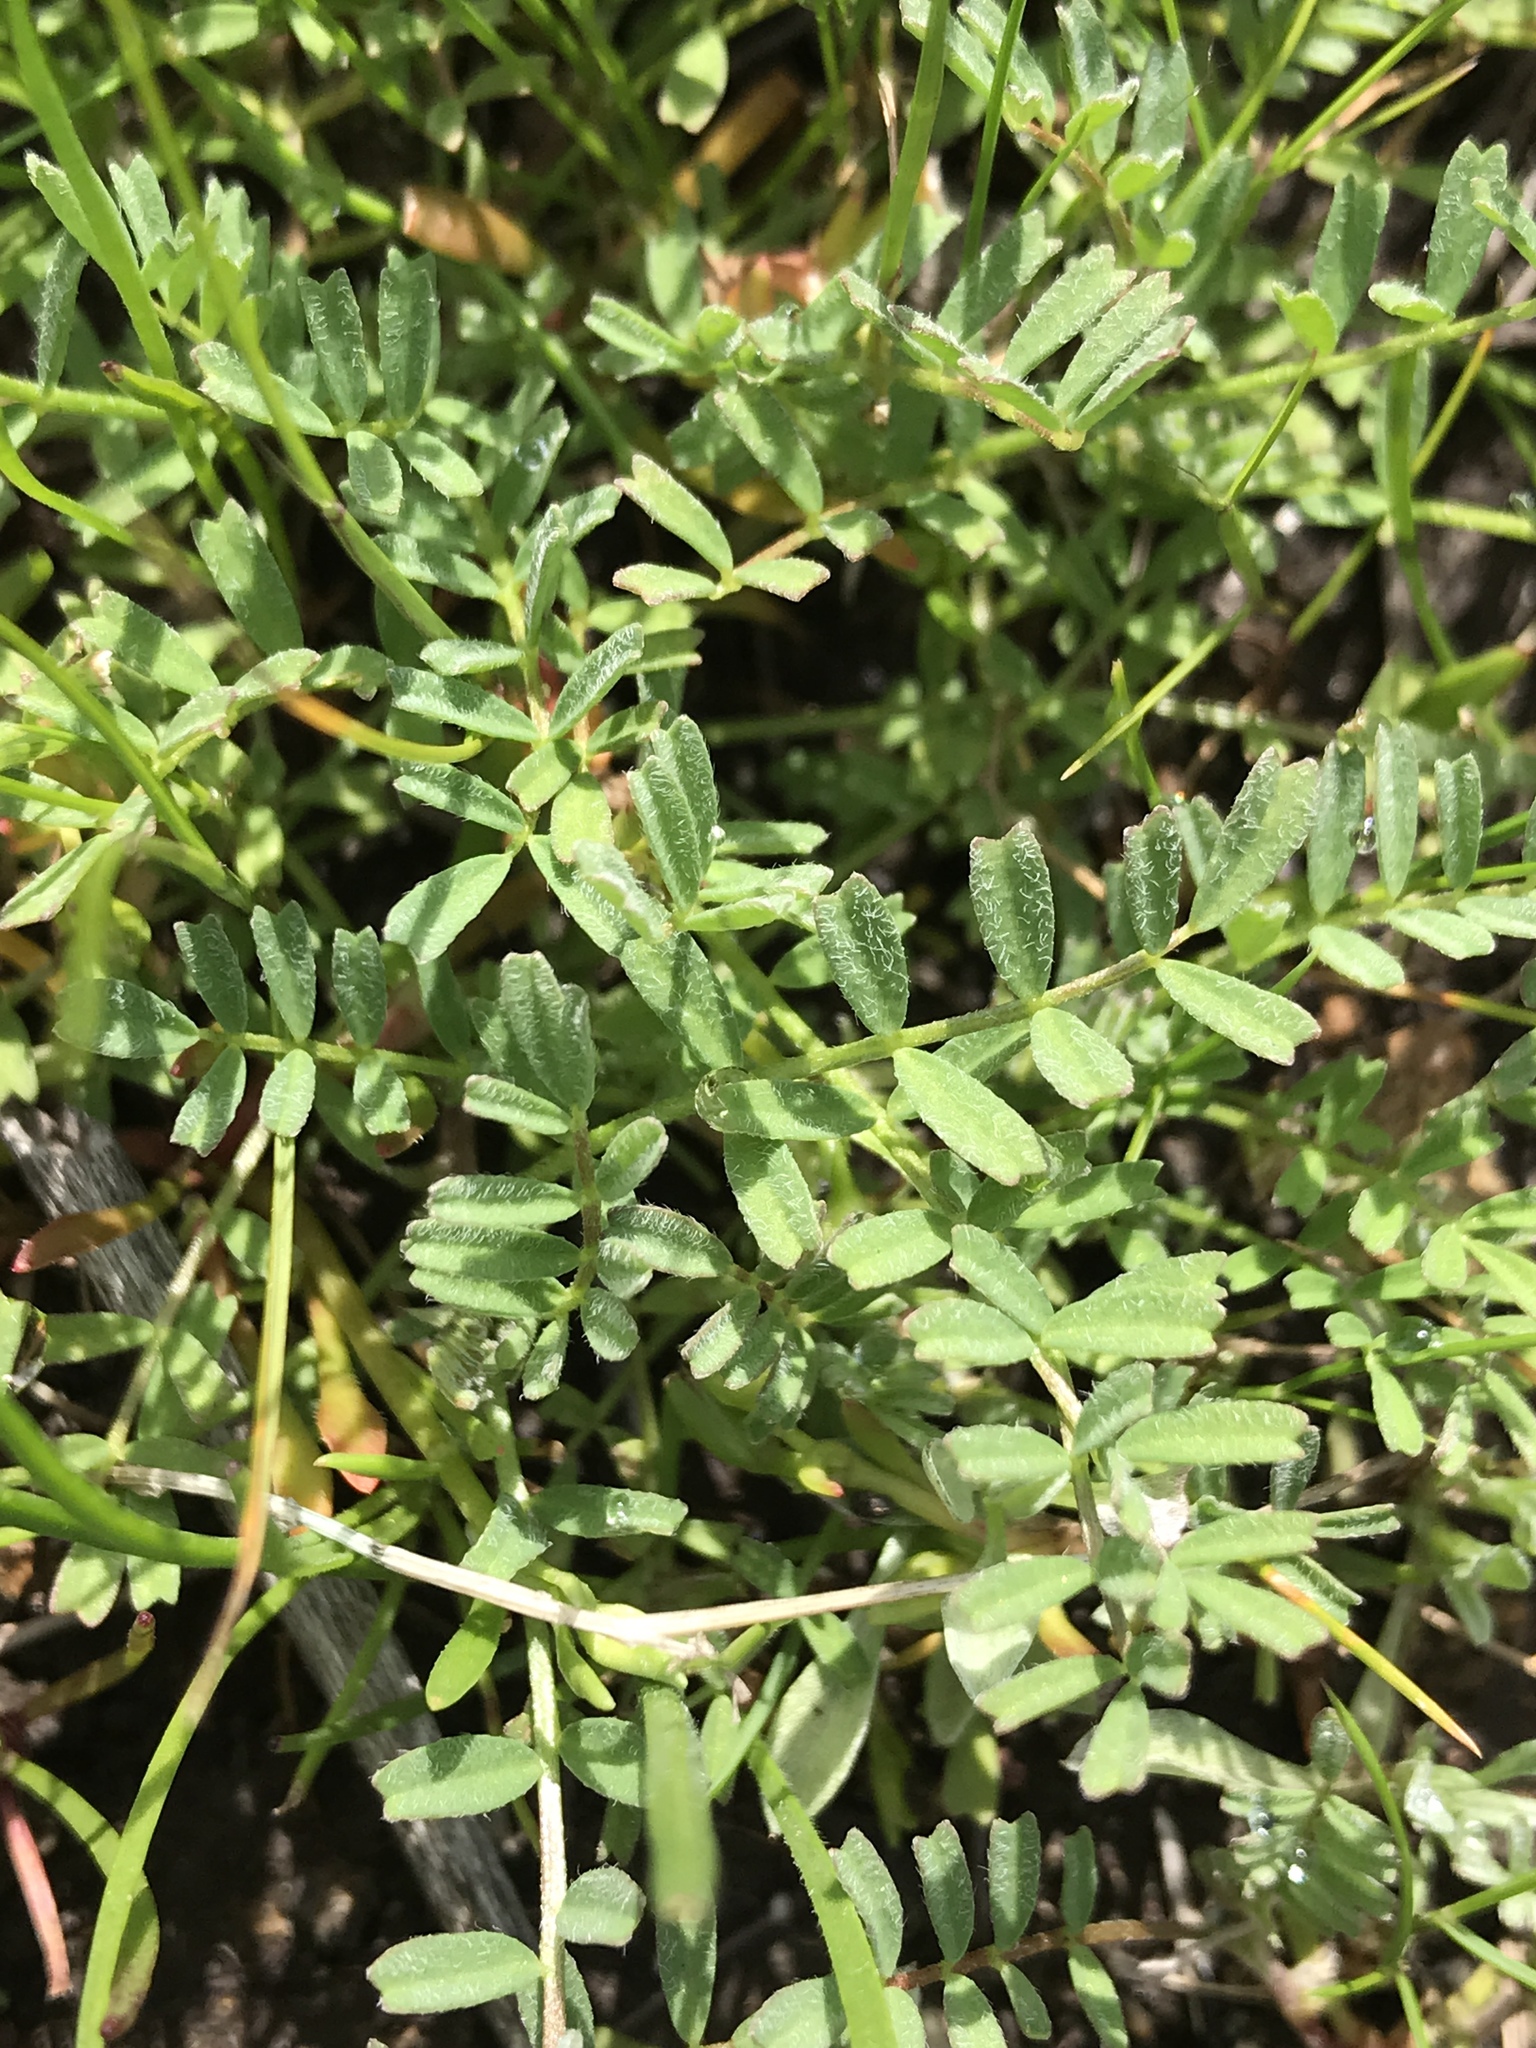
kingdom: Plantae
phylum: Tracheophyta
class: Magnoliopsida
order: Fabales
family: Fabaceae
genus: Astragalus
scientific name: Astragalus gambelianus
